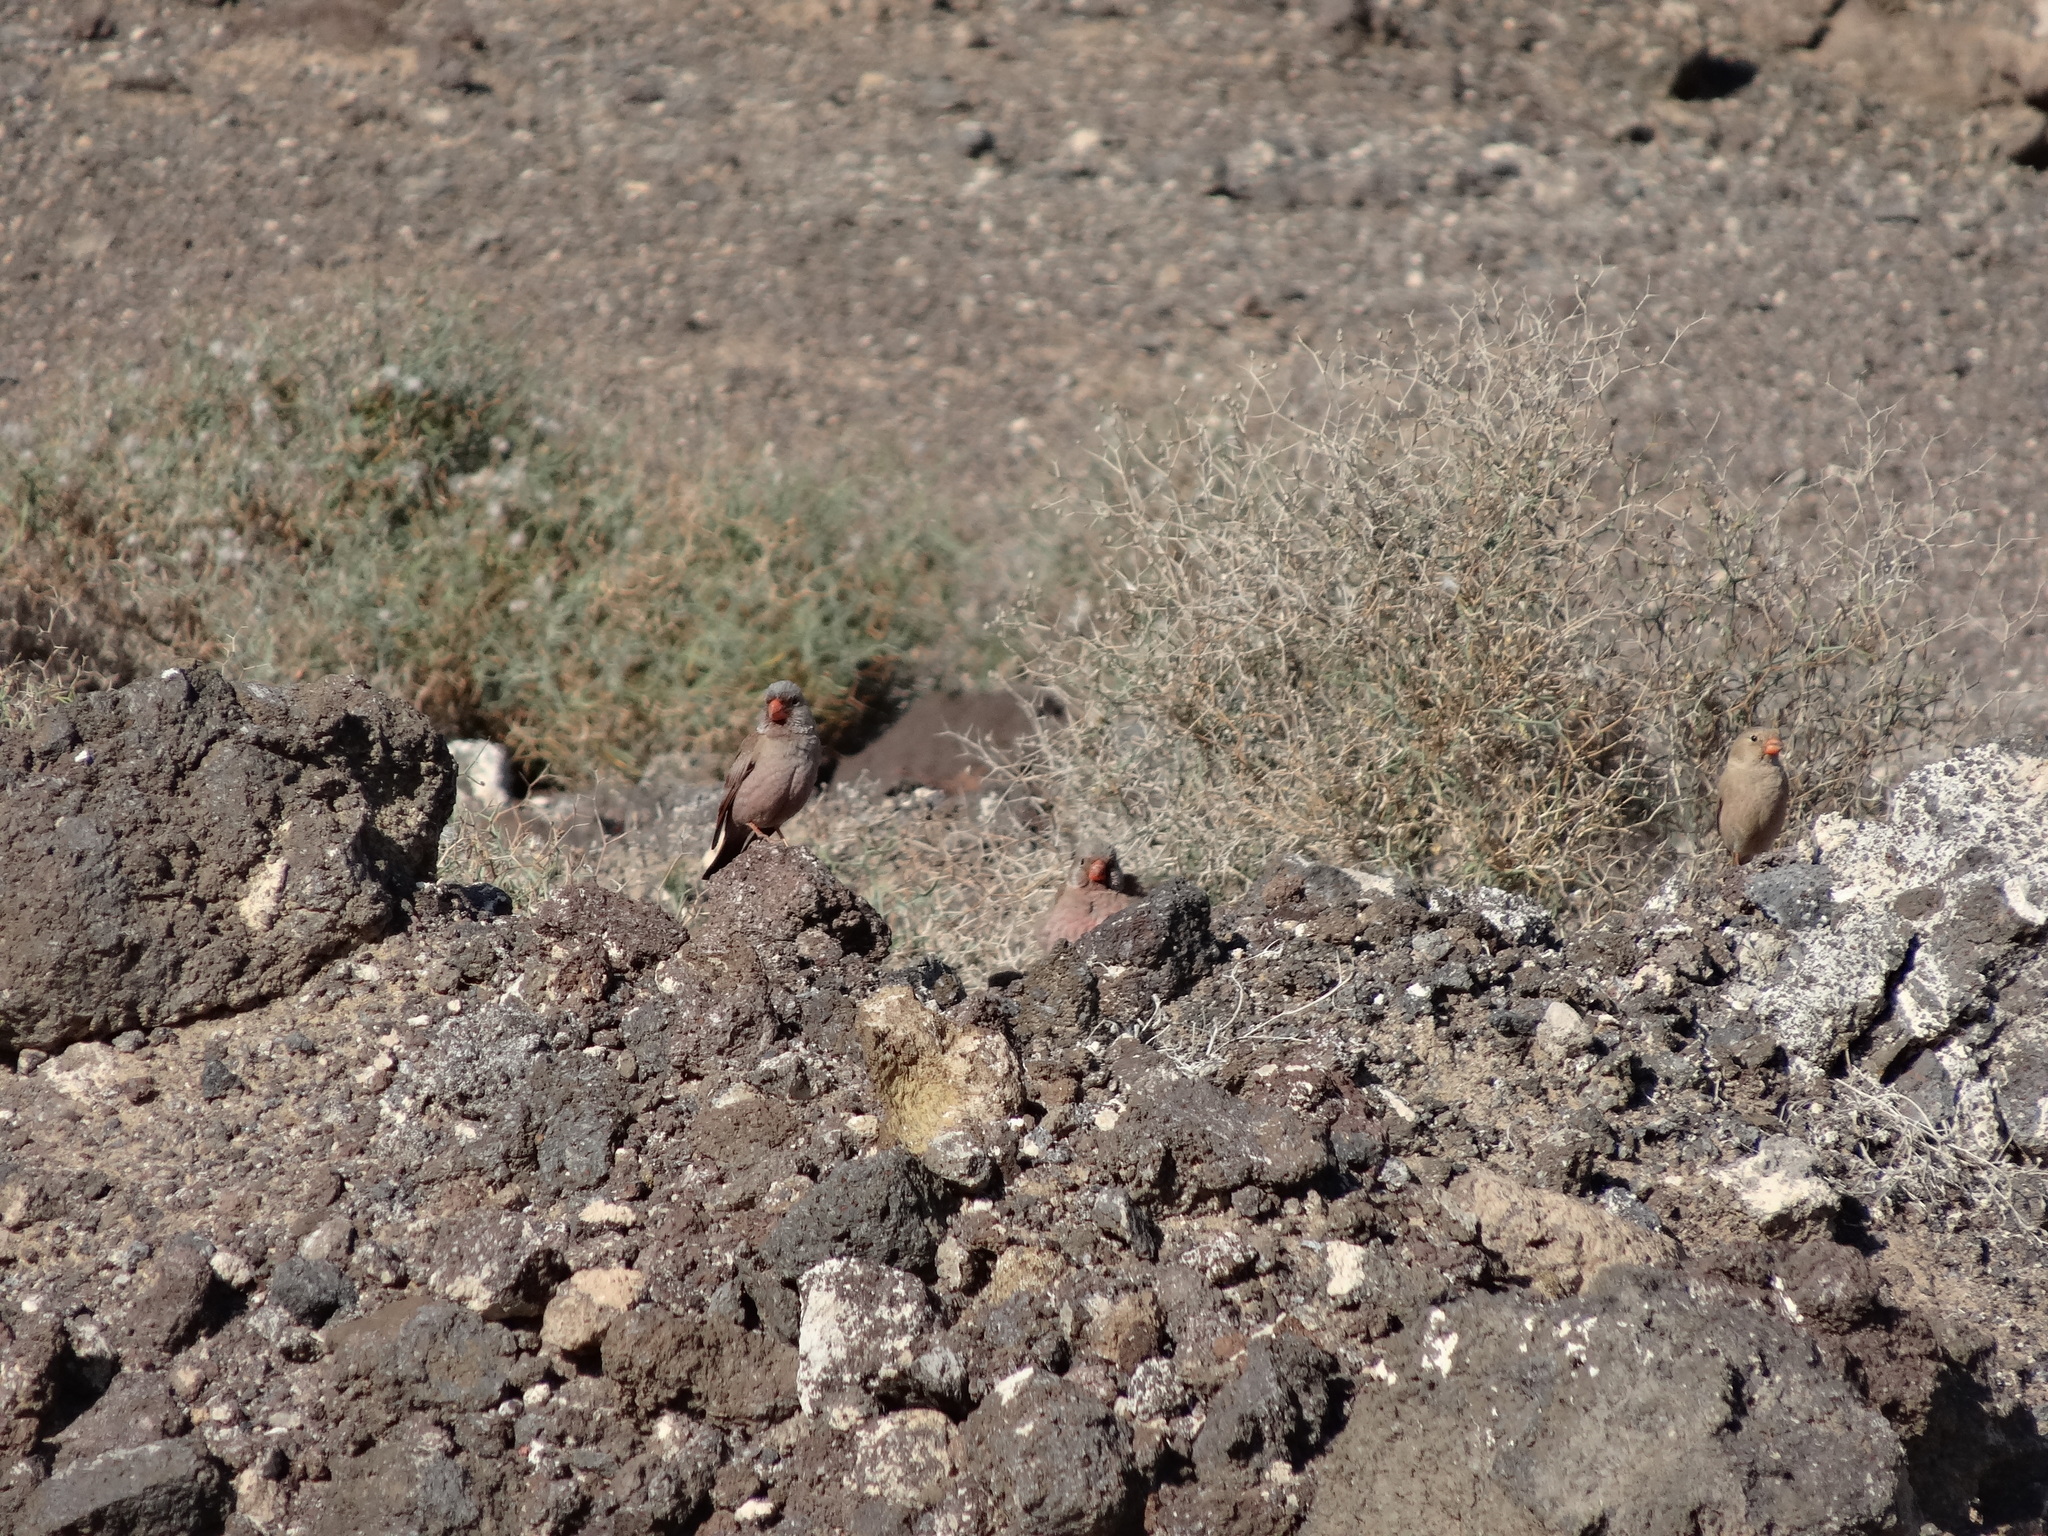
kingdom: Animalia
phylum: Chordata
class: Aves
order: Passeriformes
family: Fringillidae
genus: Bucanetes
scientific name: Bucanetes githagineus
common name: Trumpeter finch
